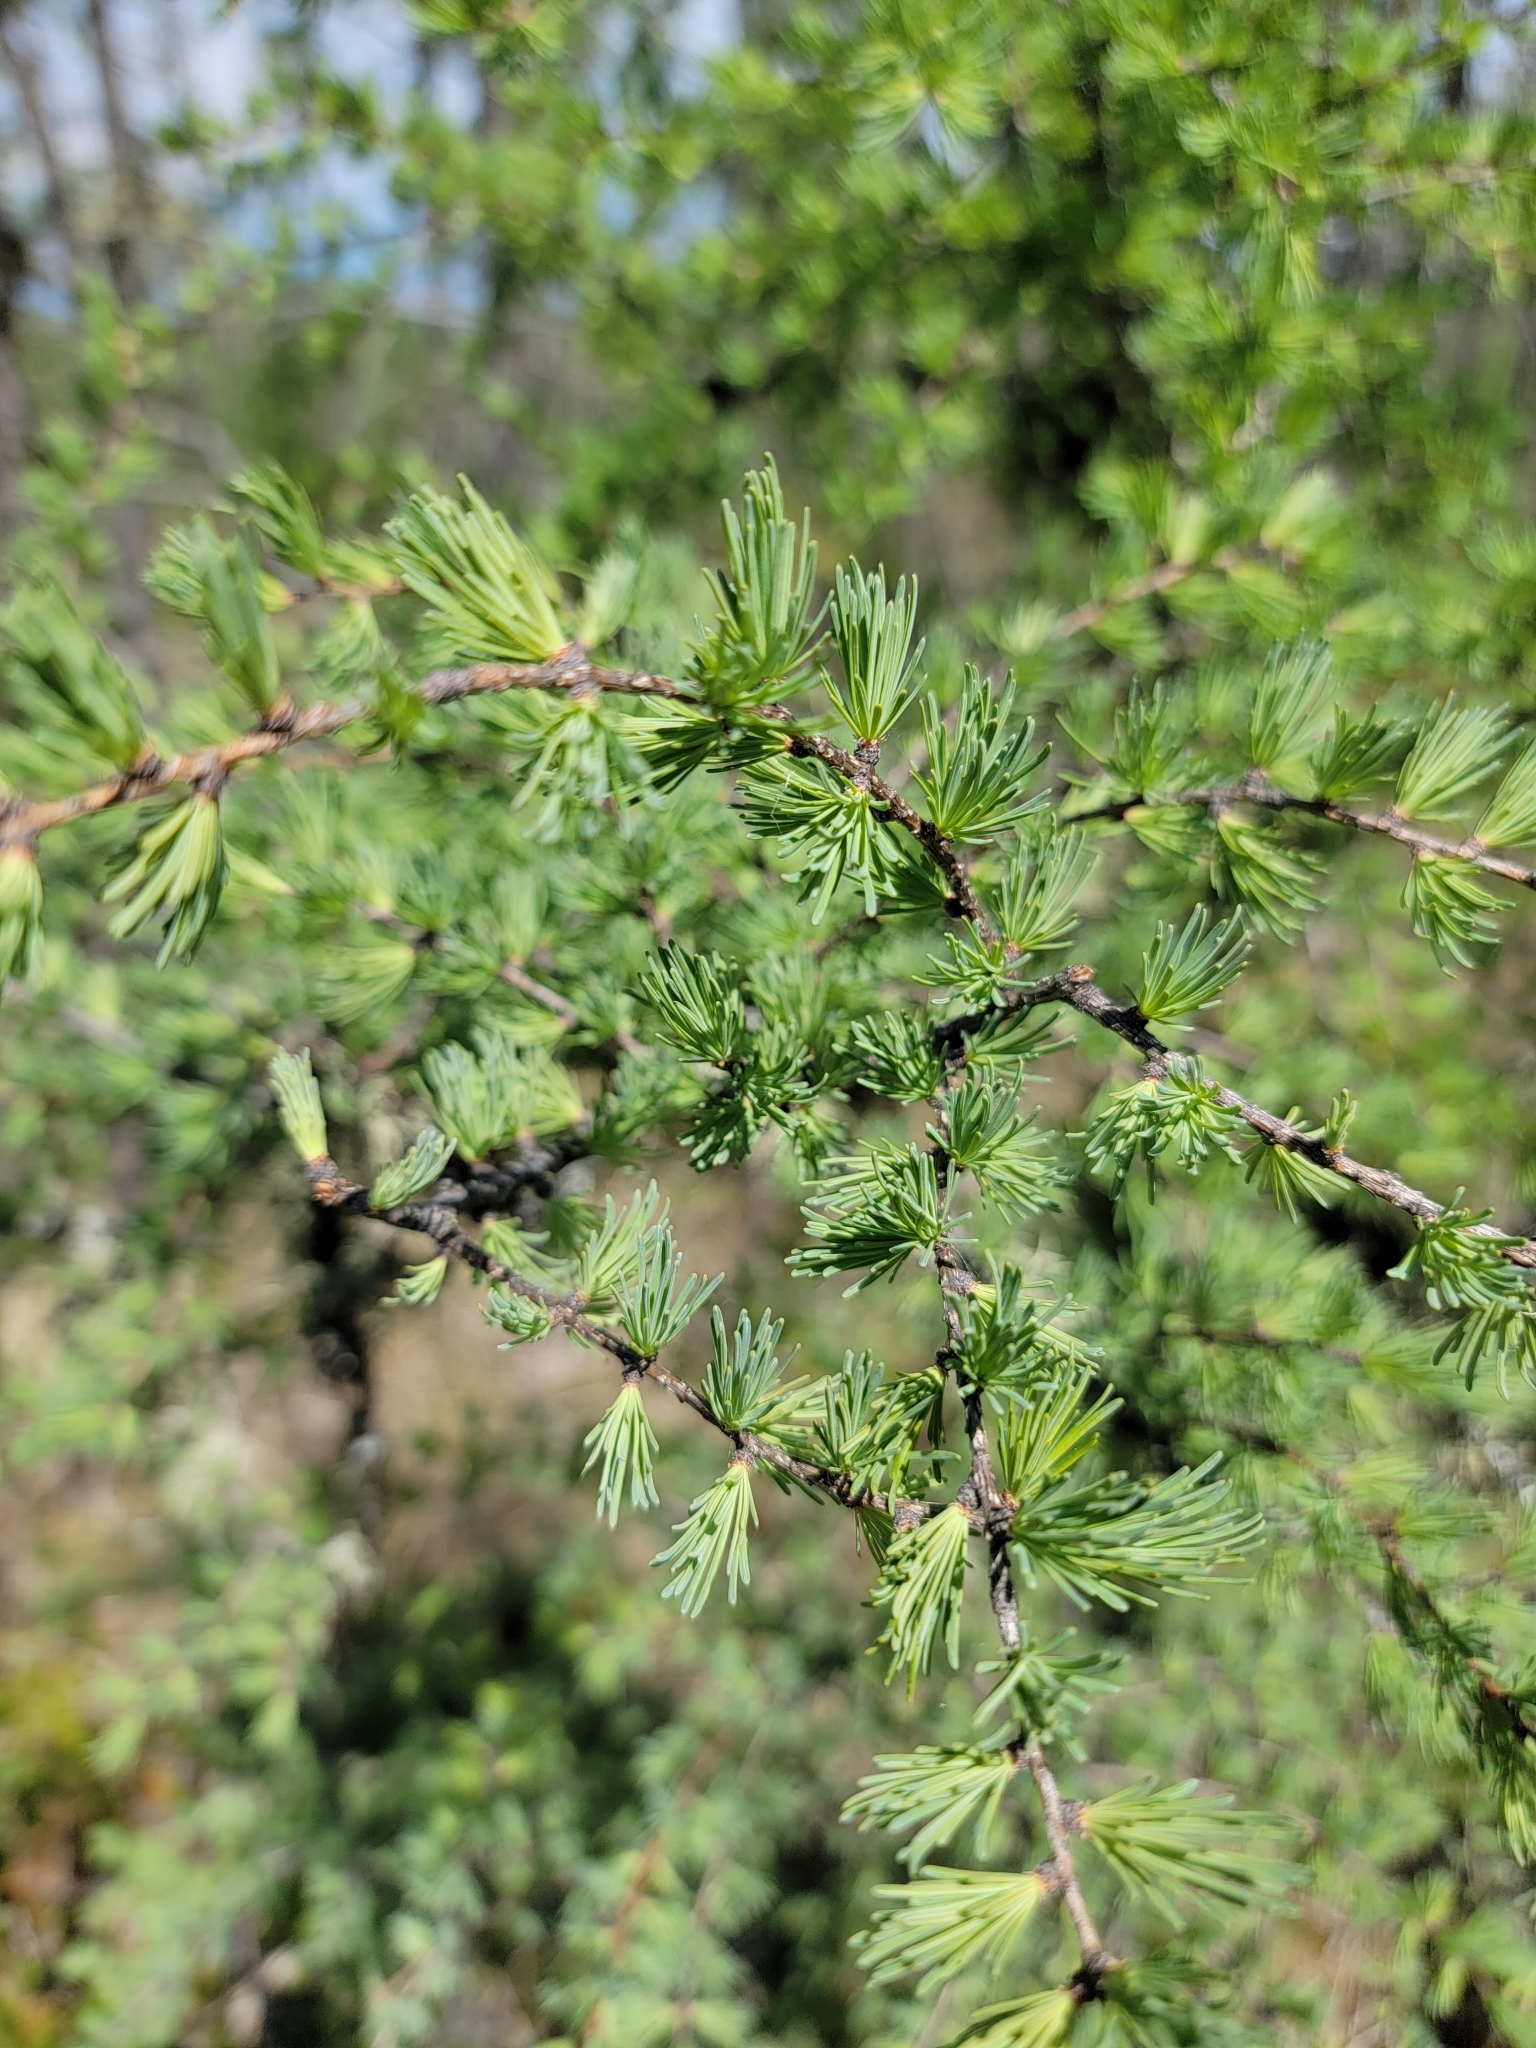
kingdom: Plantae
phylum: Tracheophyta
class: Pinopsida
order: Pinales
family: Pinaceae
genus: Larix
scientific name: Larix laricina
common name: American larch
